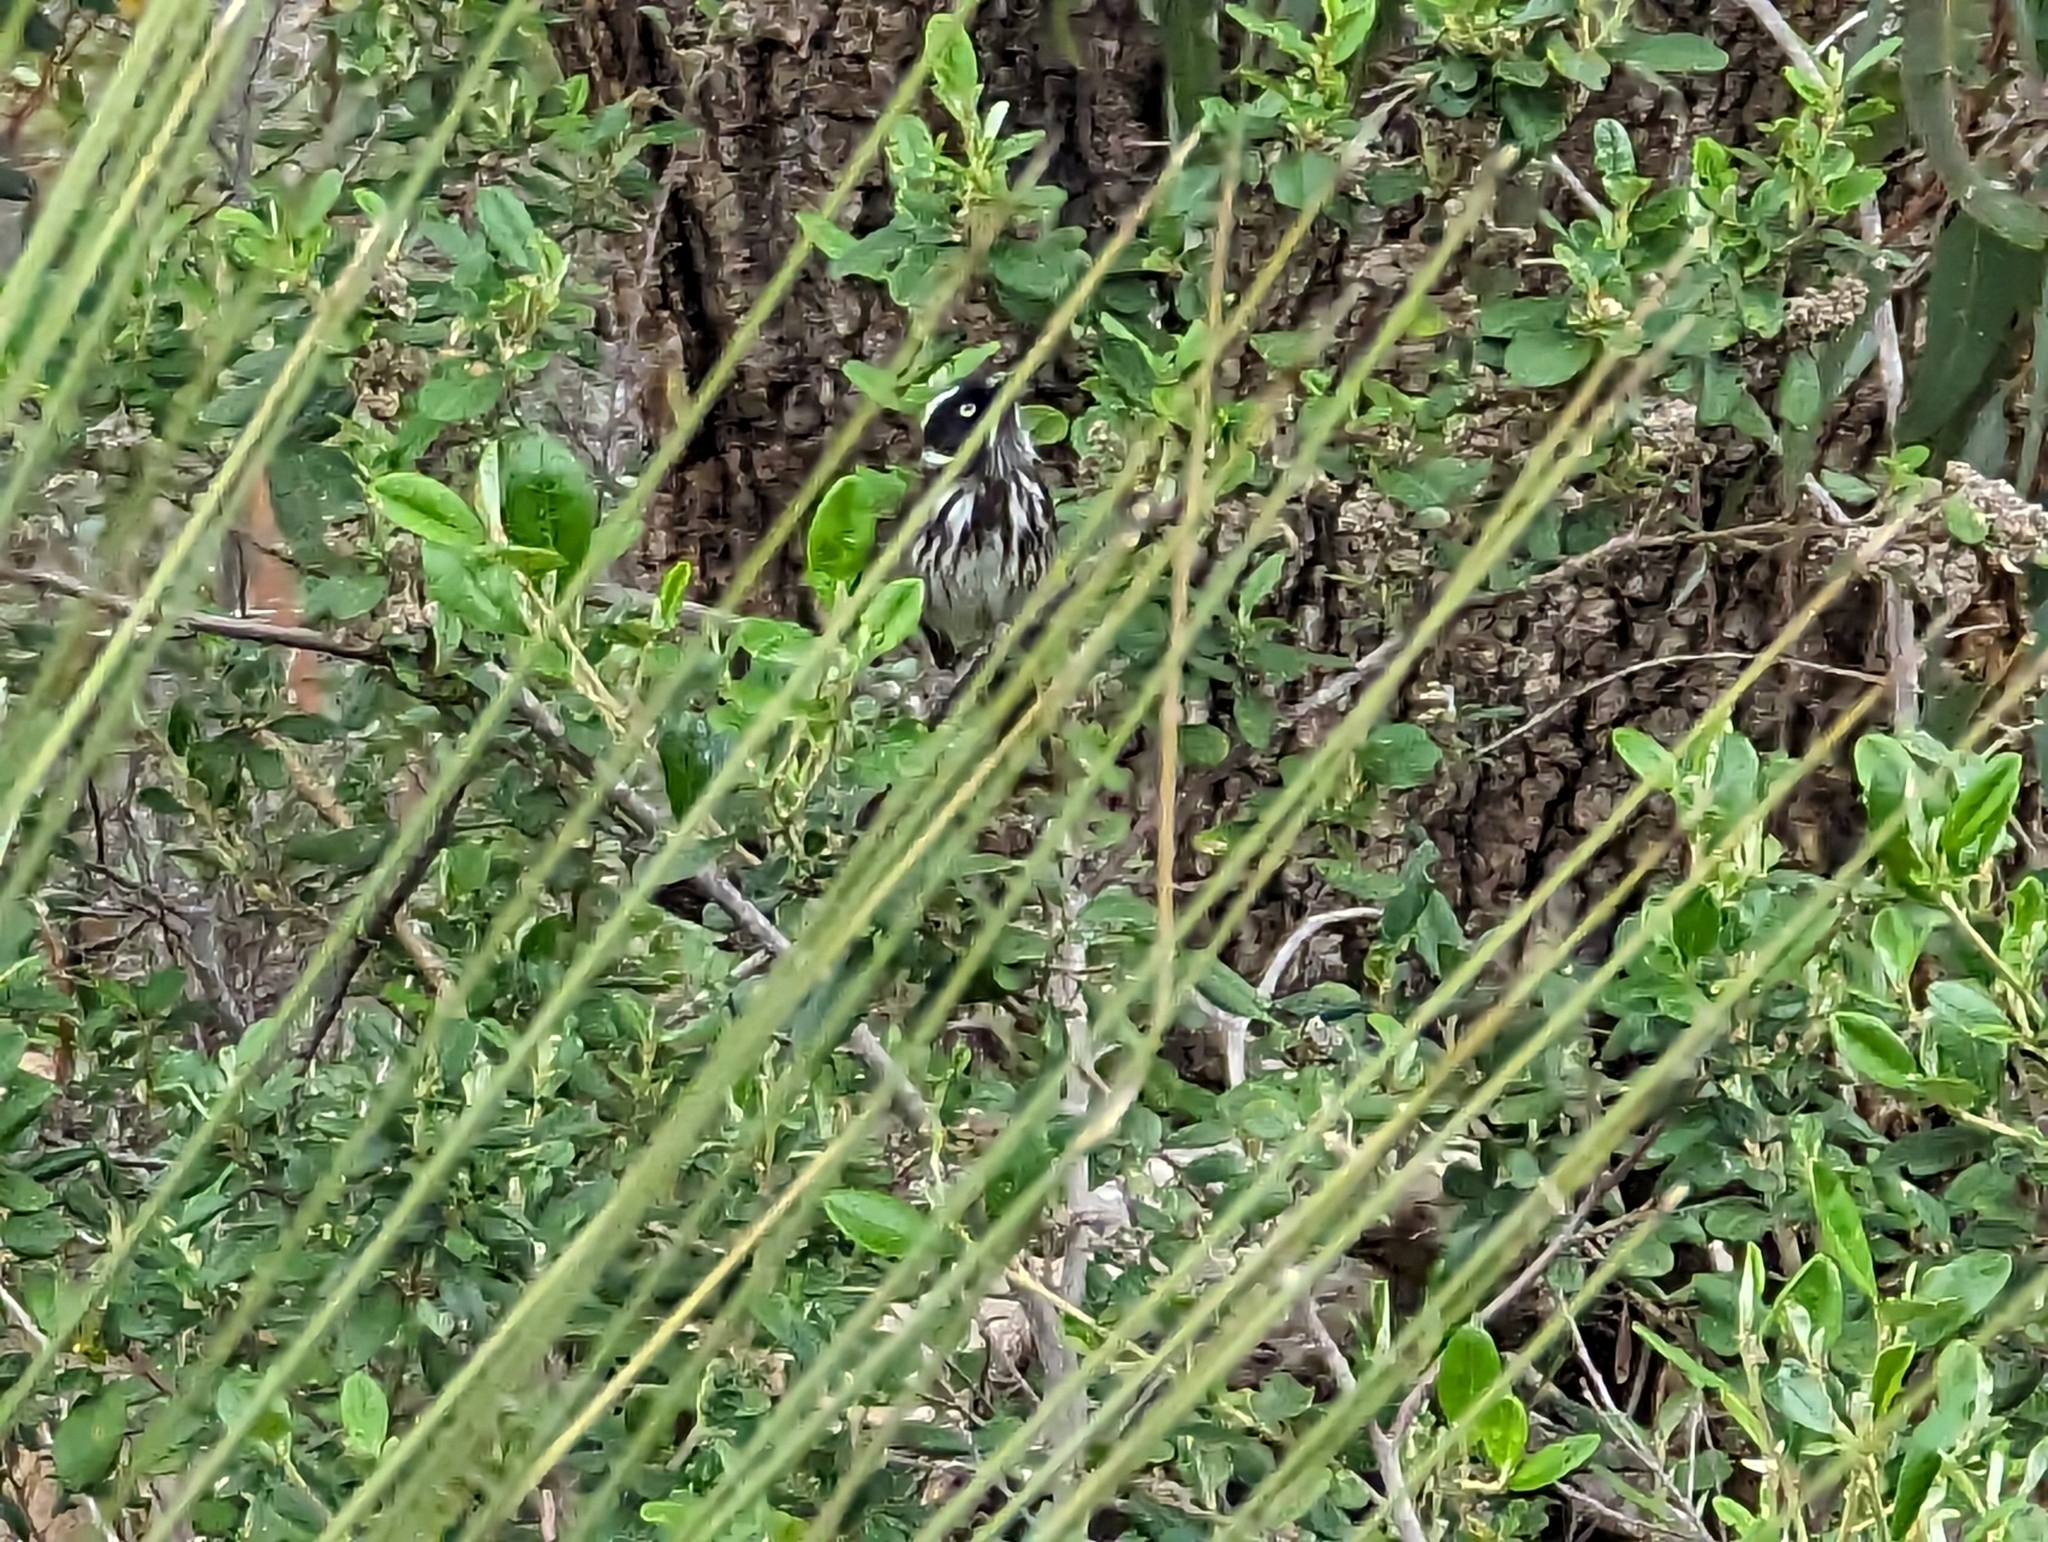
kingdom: Animalia
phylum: Chordata
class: Aves
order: Passeriformes
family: Meliphagidae
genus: Phylidonyris
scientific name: Phylidonyris novaehollandiae
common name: New holland honeyeater
